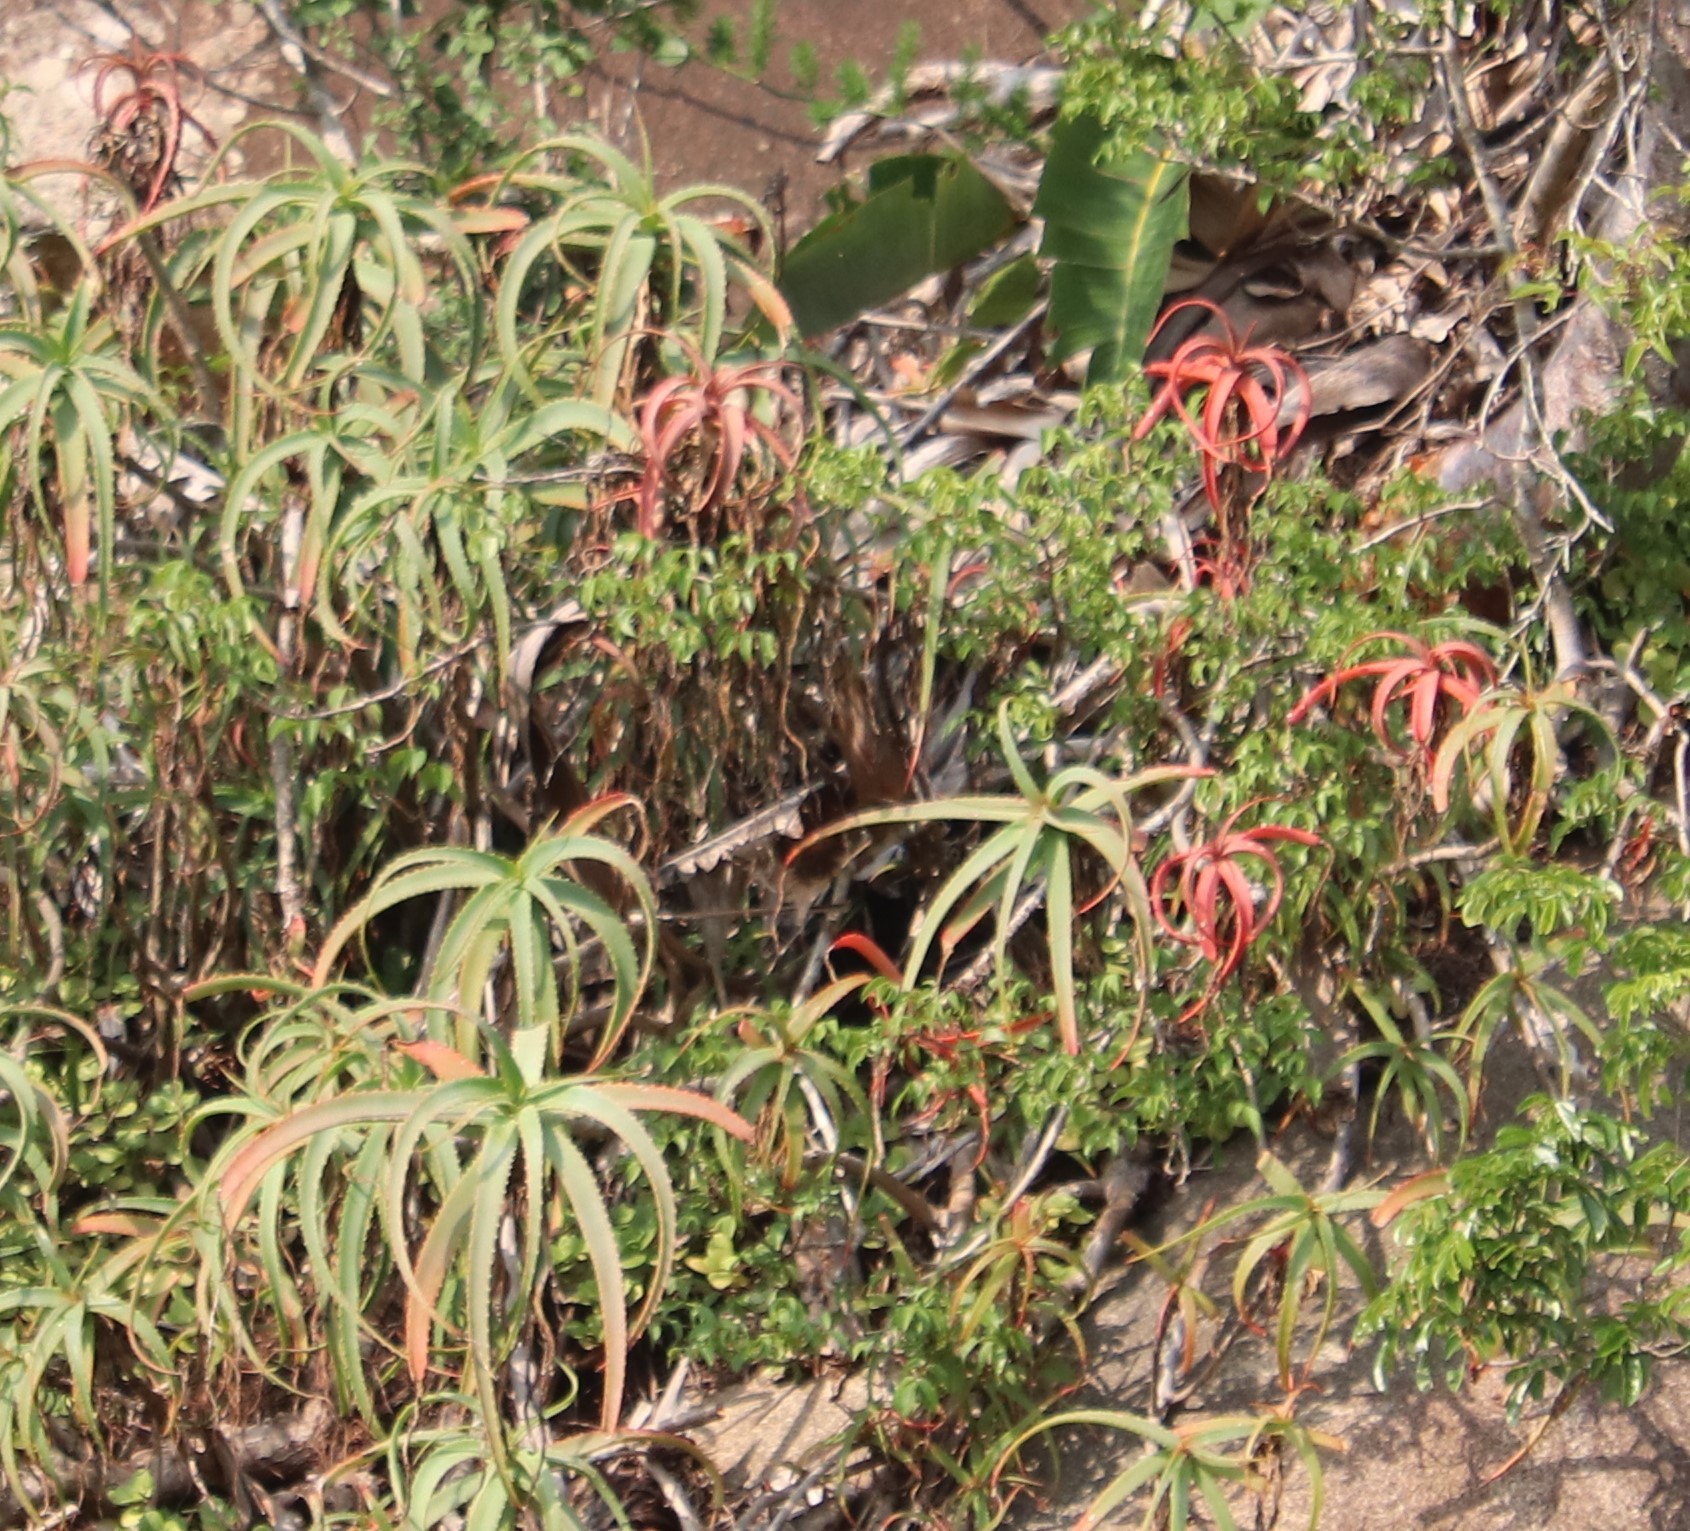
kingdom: Plantae
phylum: Tracheophyta
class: Liliopsida
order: Asparagales
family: Asphodelaceae
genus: Aloe
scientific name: Aloe arborescens
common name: Candelabra aloe
